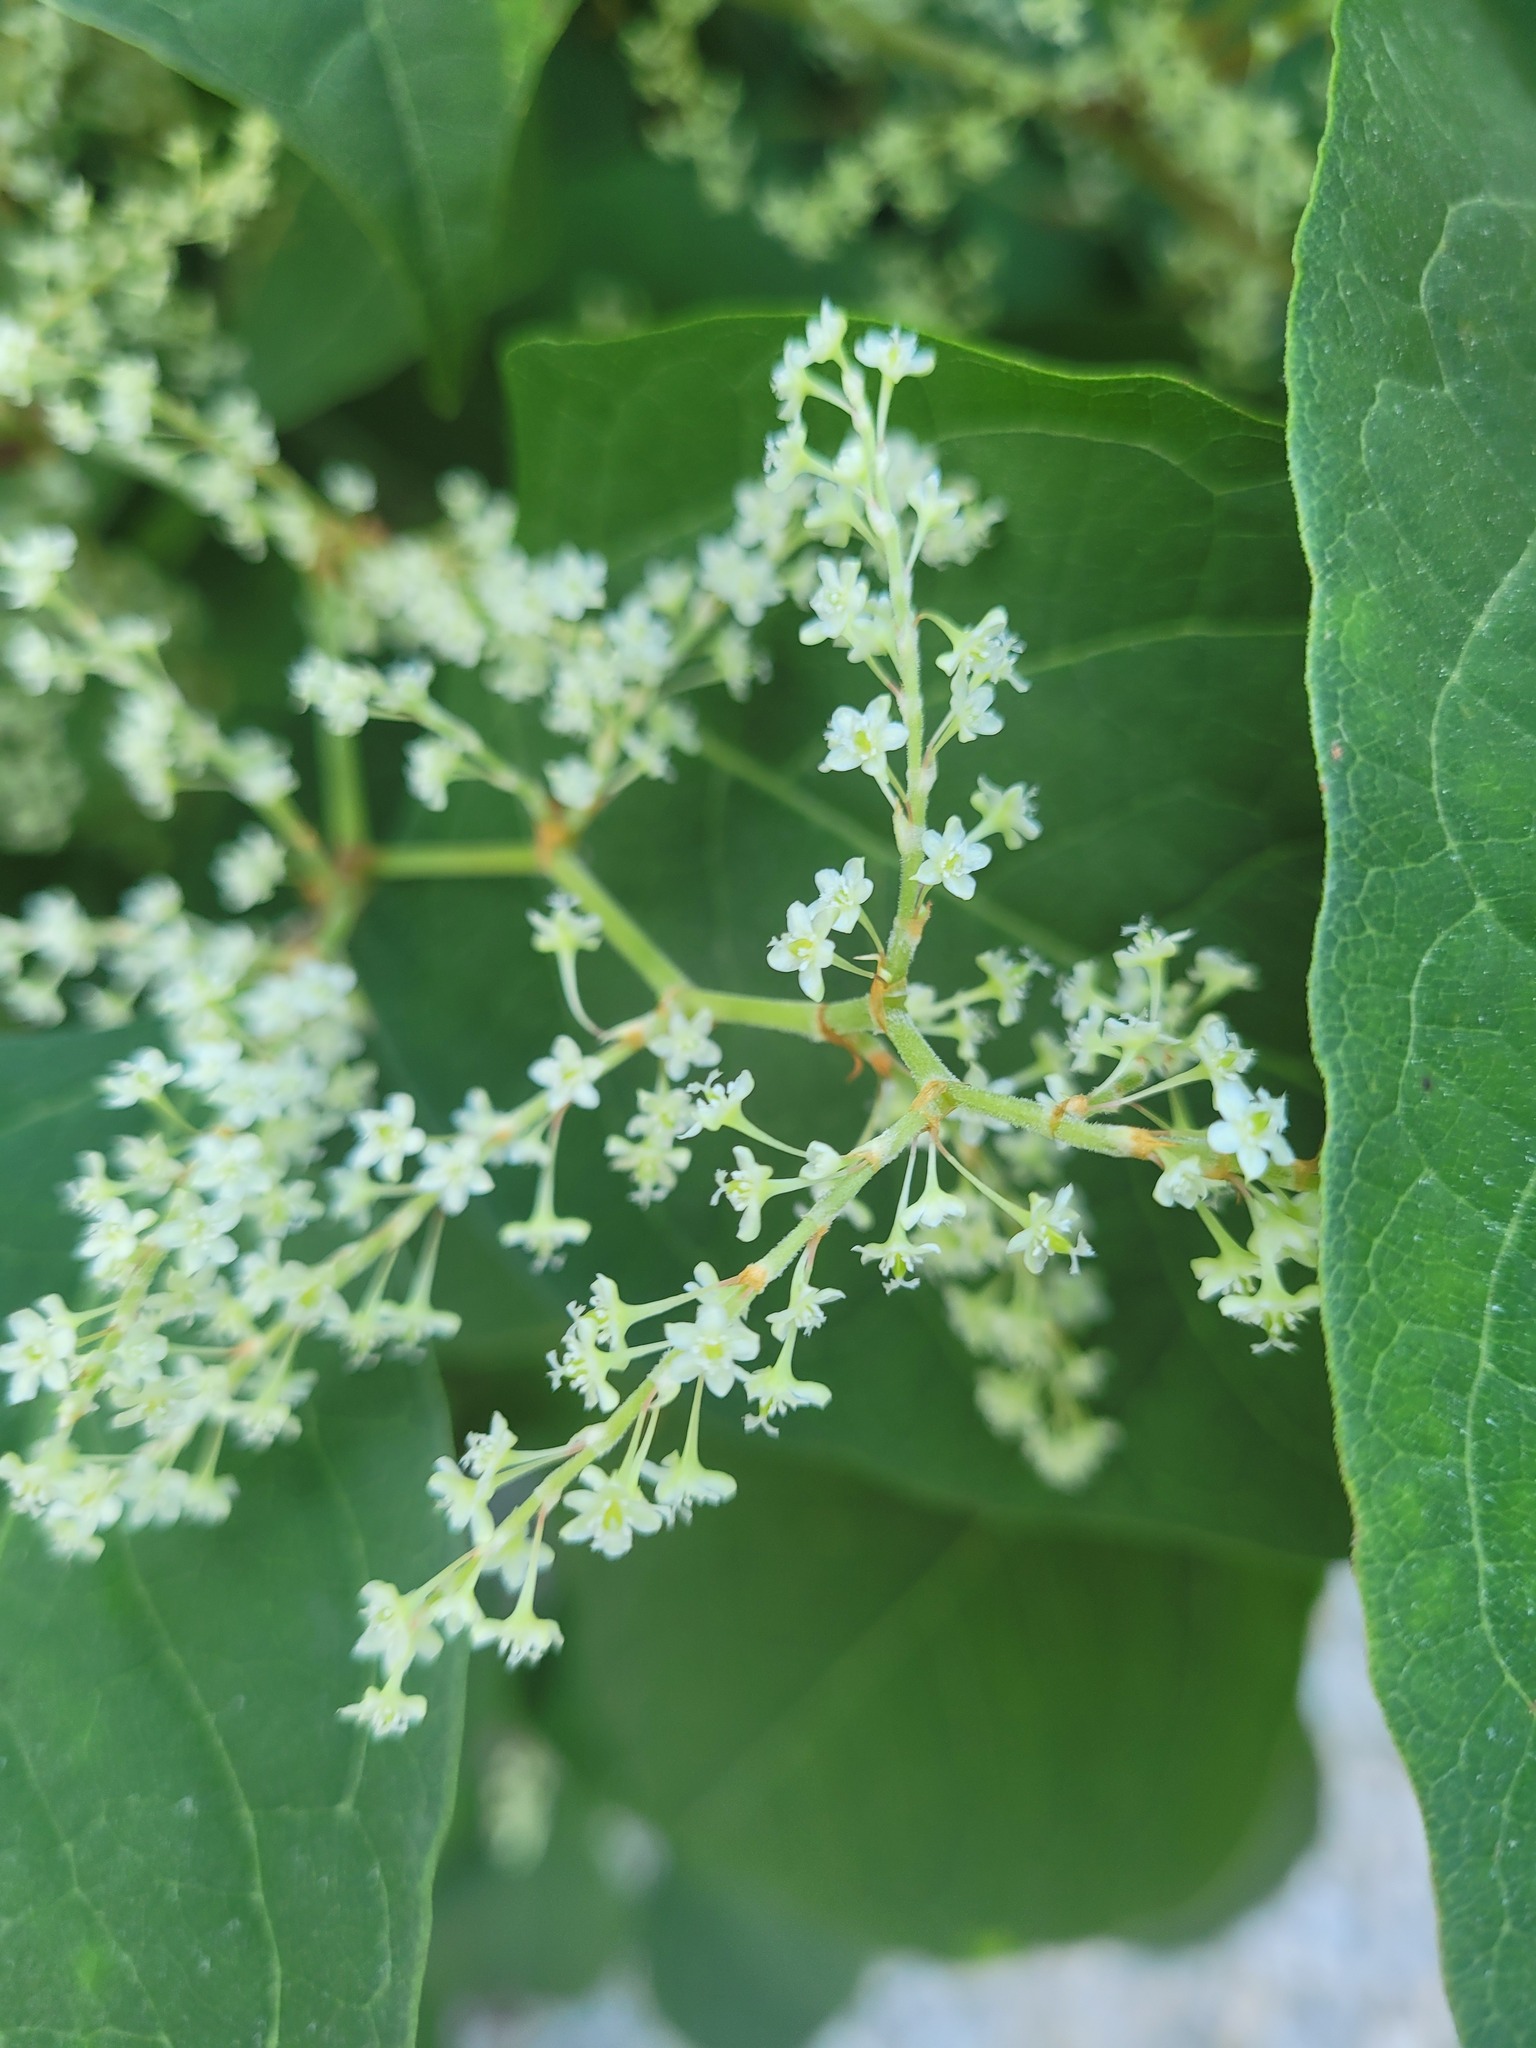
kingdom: Plantae
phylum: Tracheophyta
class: Magnoliopsida
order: Caryophyllales
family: Polygonaceae
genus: Reynoutria
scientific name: Reynoutria japonica
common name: Japanese knotweed
